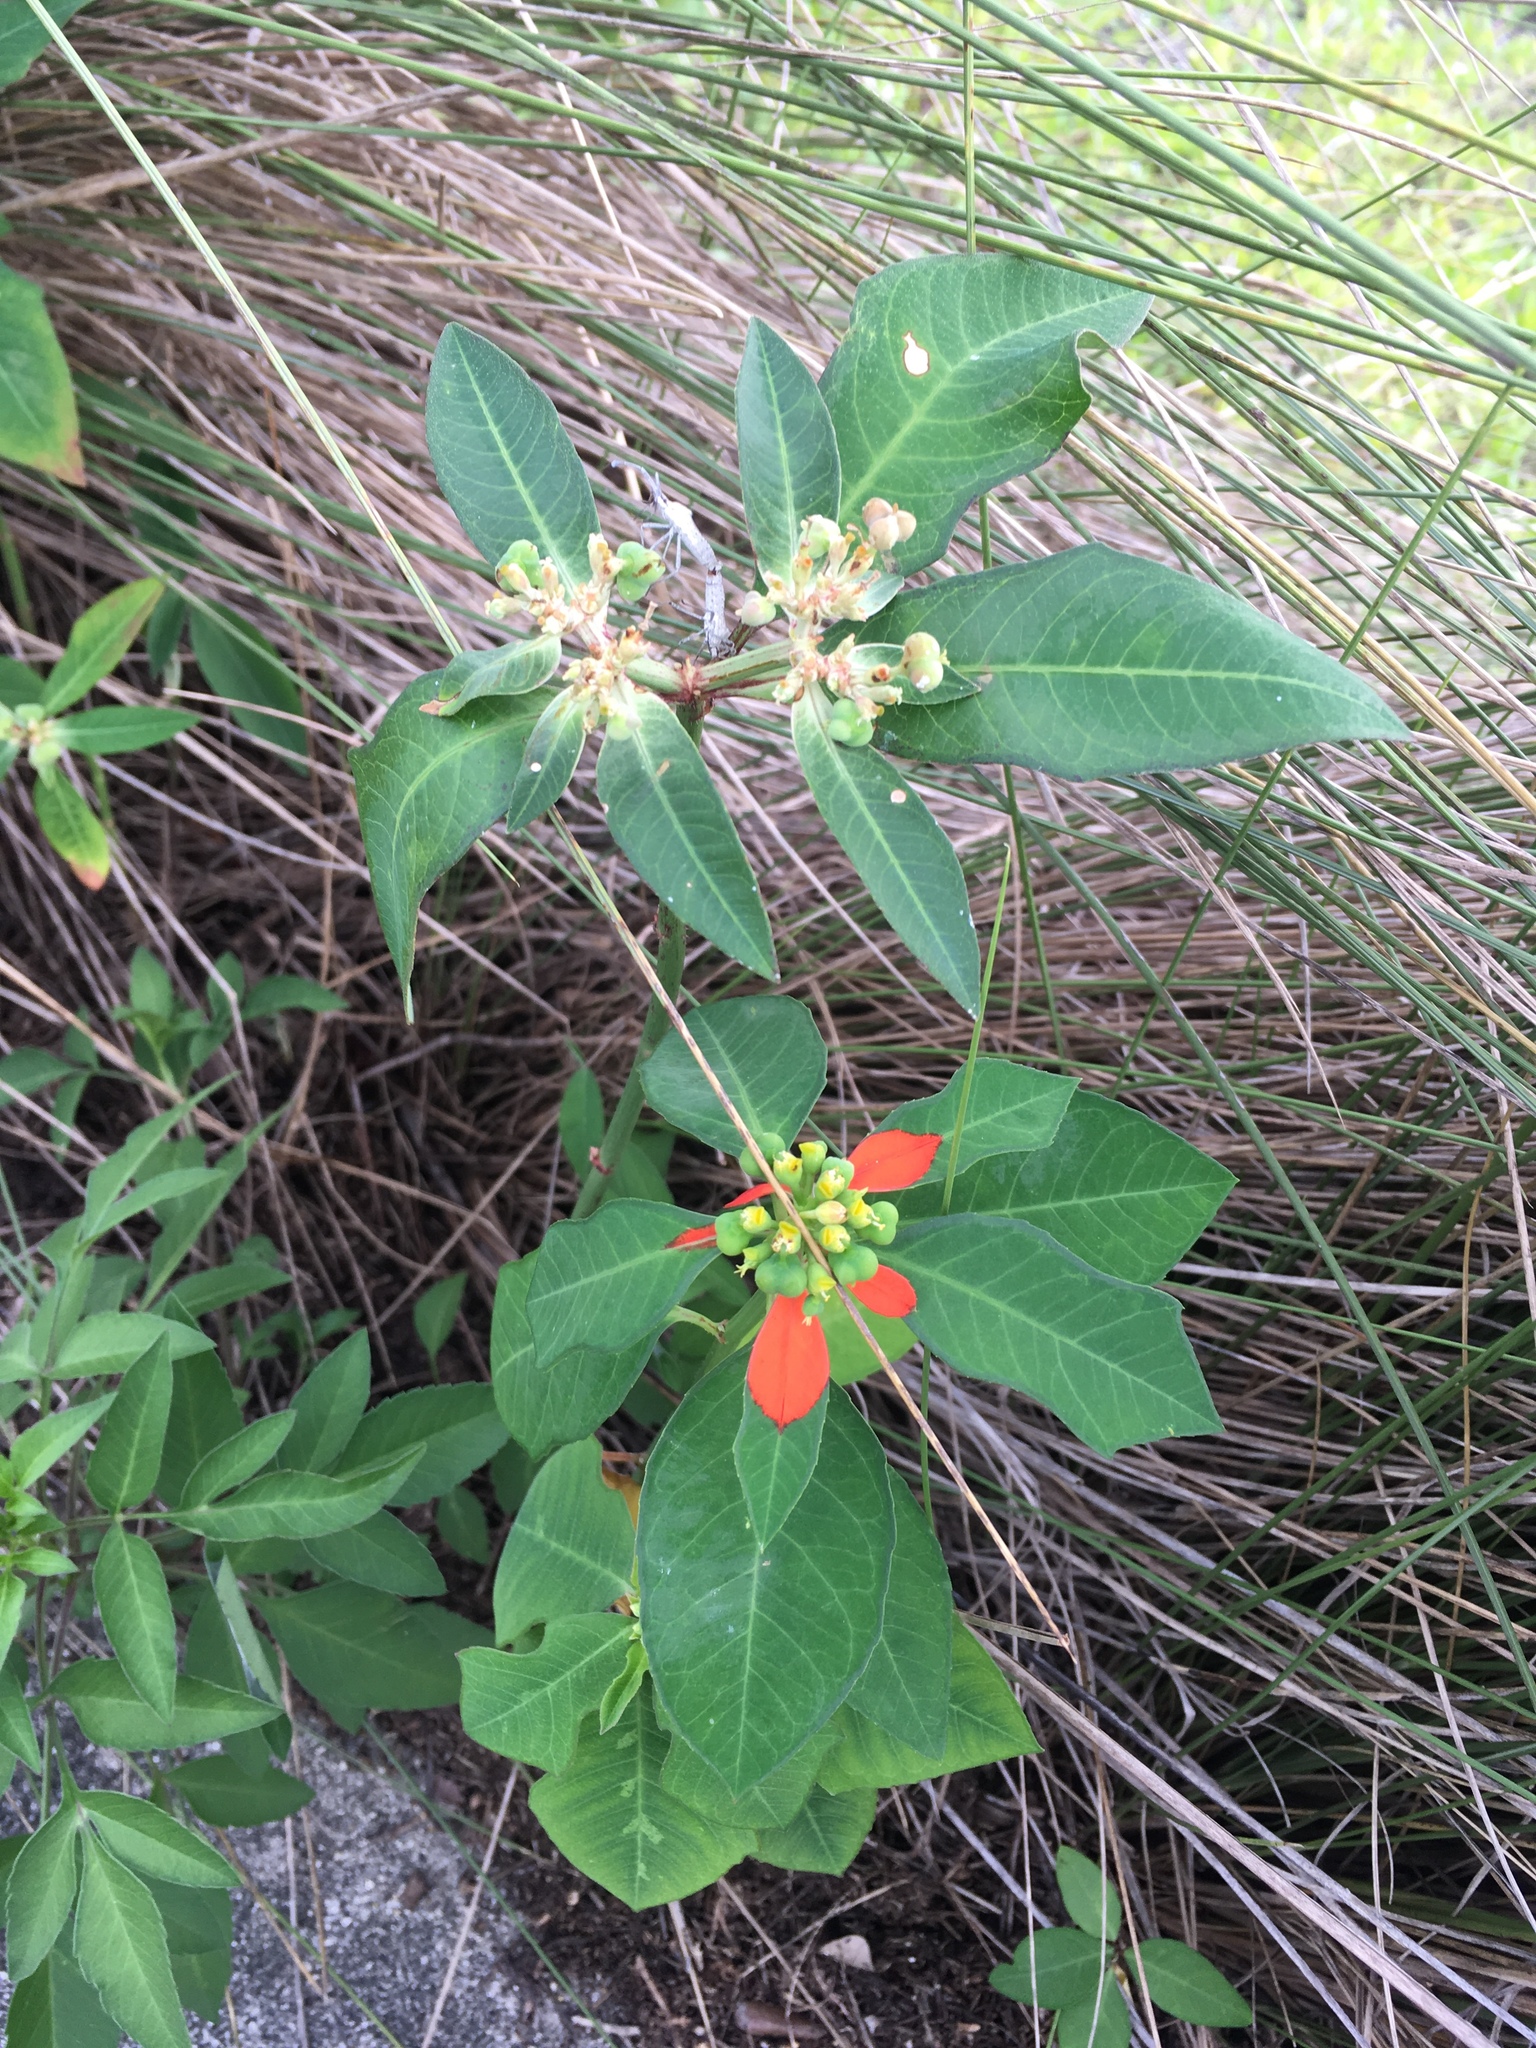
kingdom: Plantae
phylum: Tracheophyta
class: Magnoliopsida
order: Malpighiales
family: Euphorbiaceae
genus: Euphorbia
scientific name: Euphorbia heterophylla
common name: Mexican fireplant
